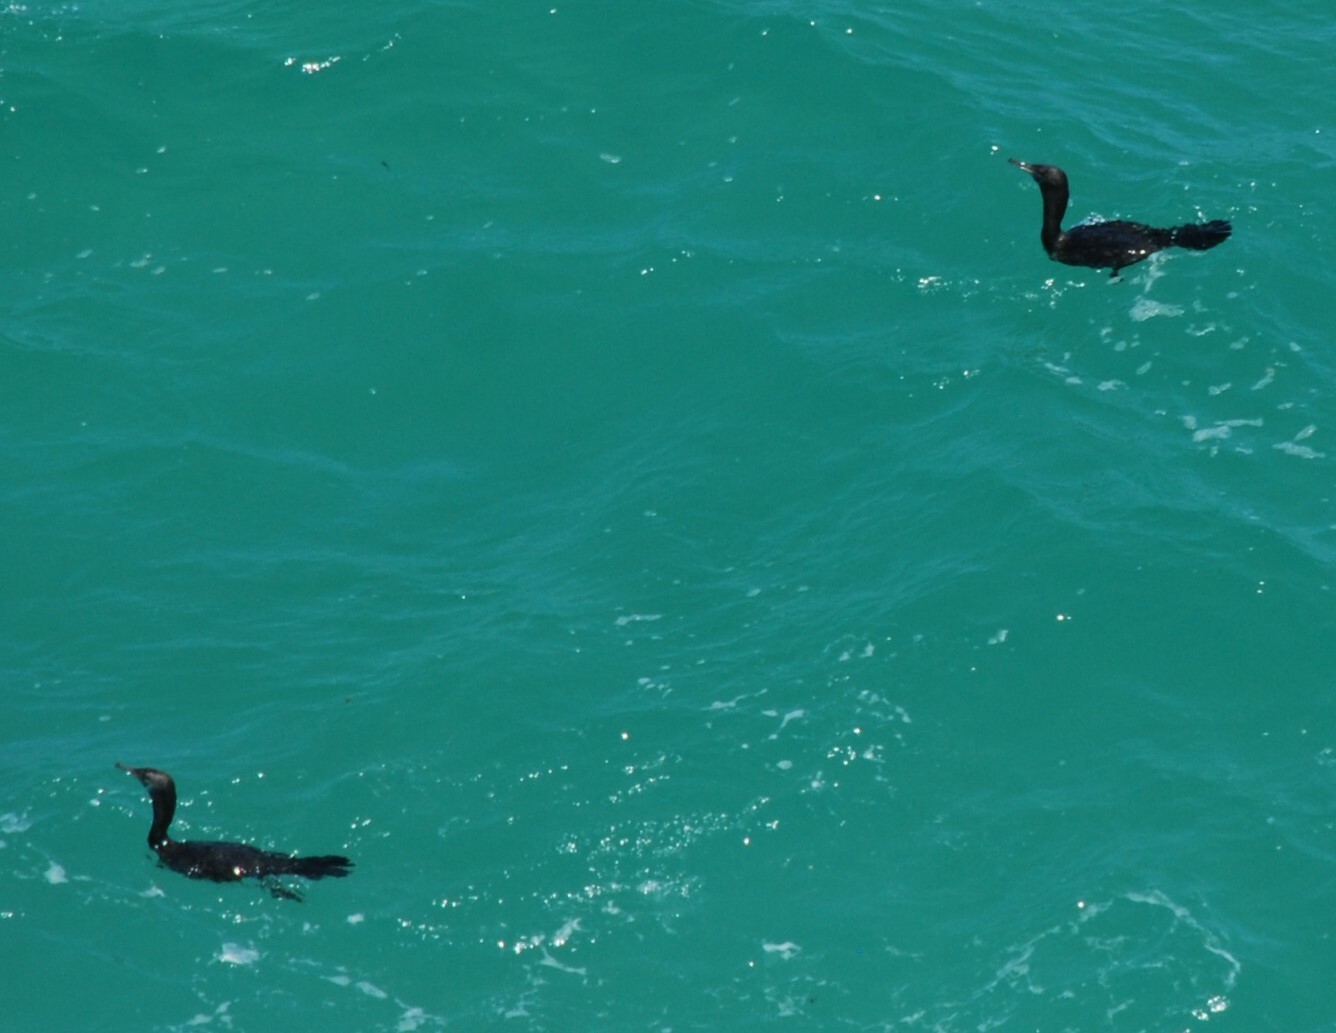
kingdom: Animalia
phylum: Chordata
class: Aves
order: Suliformes
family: Phalacrocoracidae
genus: Phalacrocorax
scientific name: Phalacrocorax sulcirostris
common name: Little black cormorant
